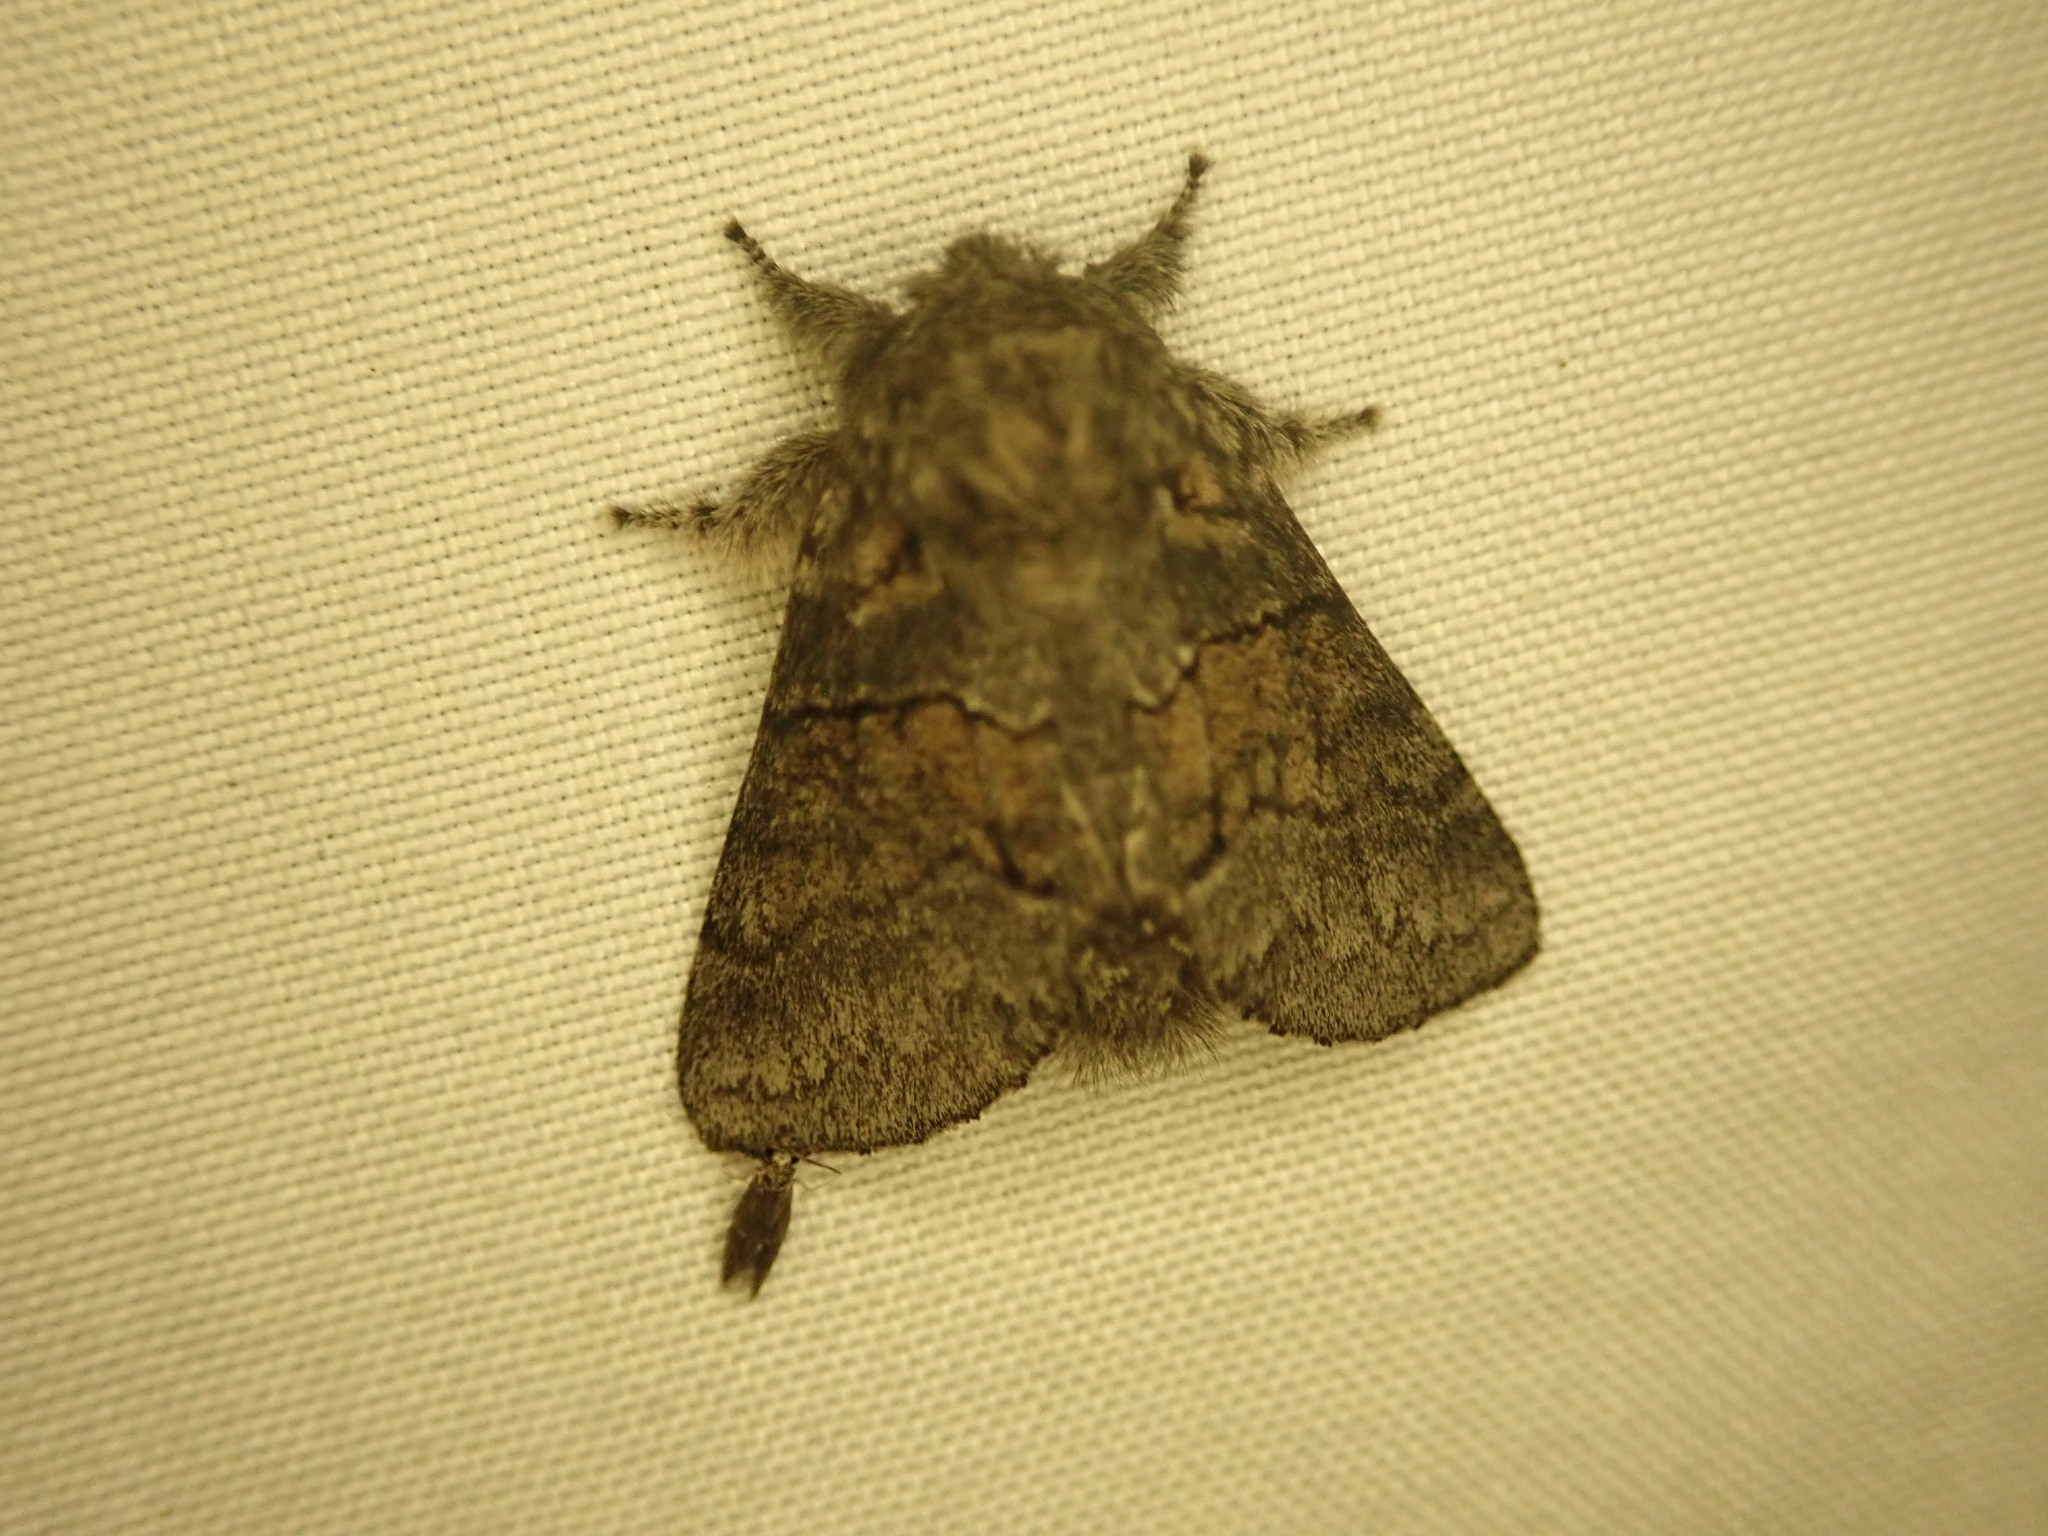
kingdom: Animalia
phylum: Arthropoda
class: Insecta
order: Lepidoptera
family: Notodontidae
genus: Gluphisia
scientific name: Gluphisia septentrionis
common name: Common gluphisia
